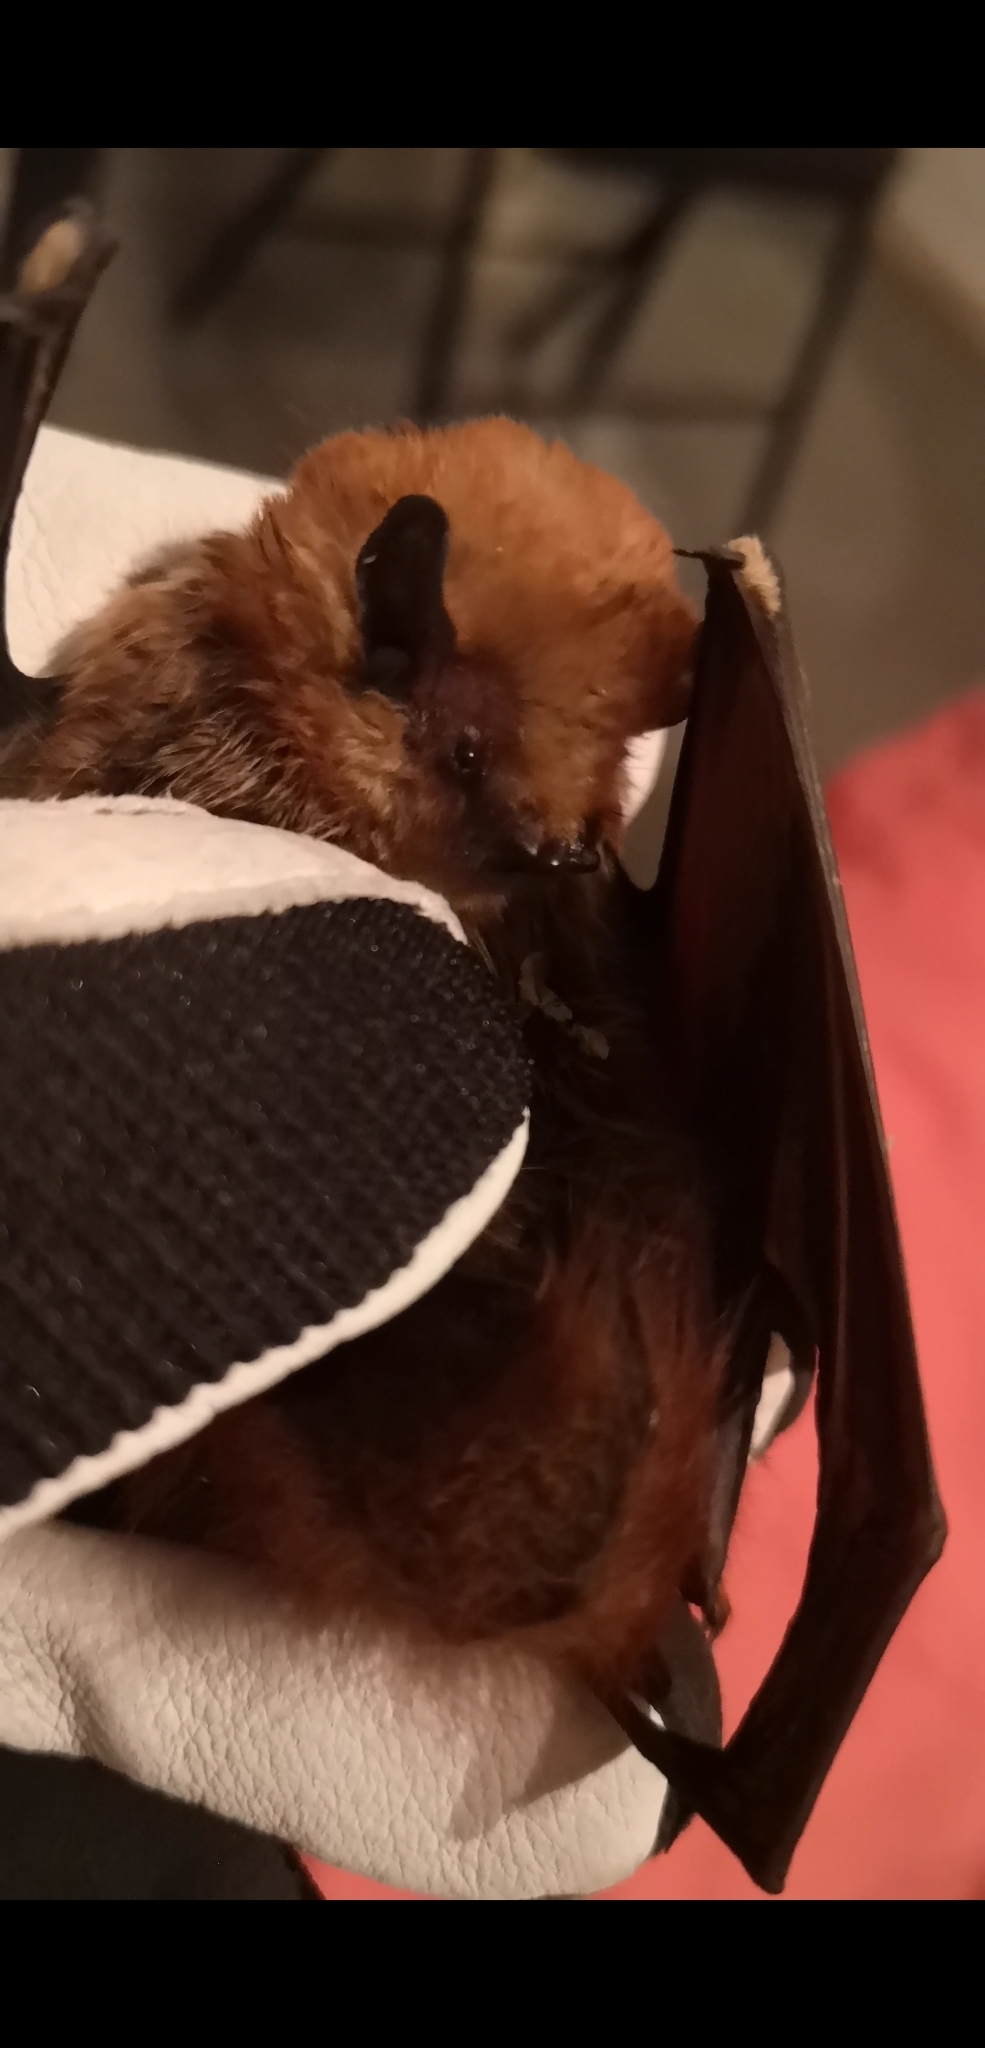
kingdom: Animalia
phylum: Chordata
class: Mammalia
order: Chiroptera
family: Vespertilionidae
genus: Lasiurus
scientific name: Lasiurus varius
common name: Cinnamon red bat
